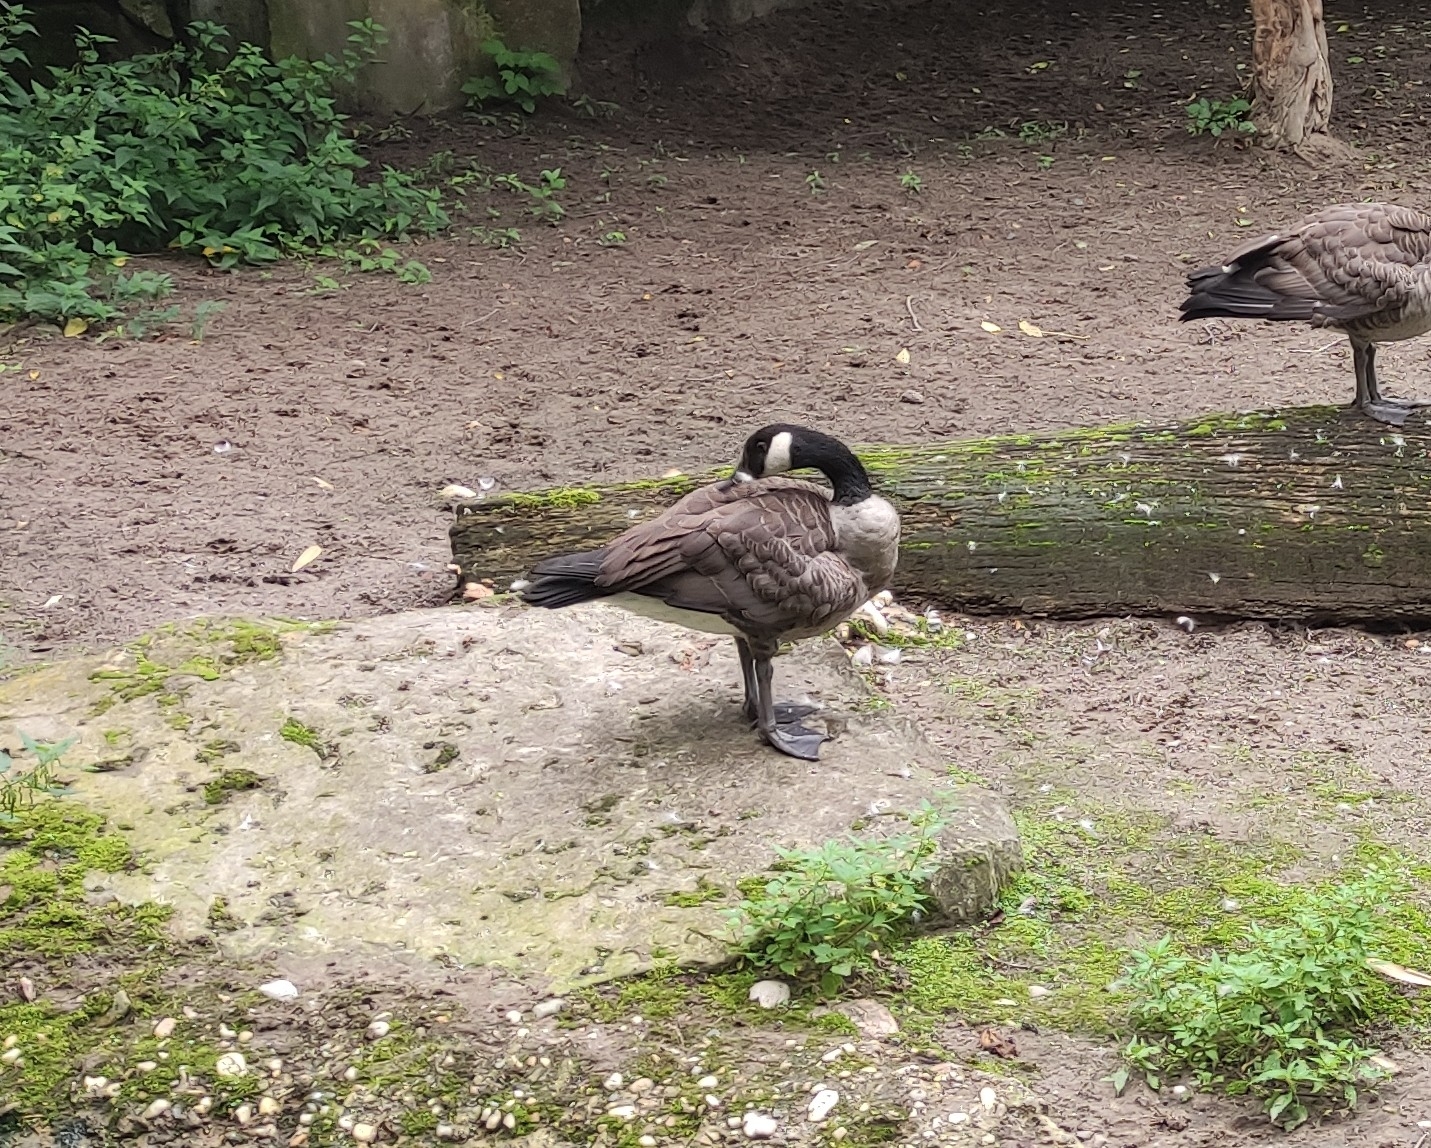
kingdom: Animalia
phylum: Chordata
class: Aves
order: Anseriformes
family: Anatidae
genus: Branta
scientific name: Branta canadensis
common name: Canada goose
